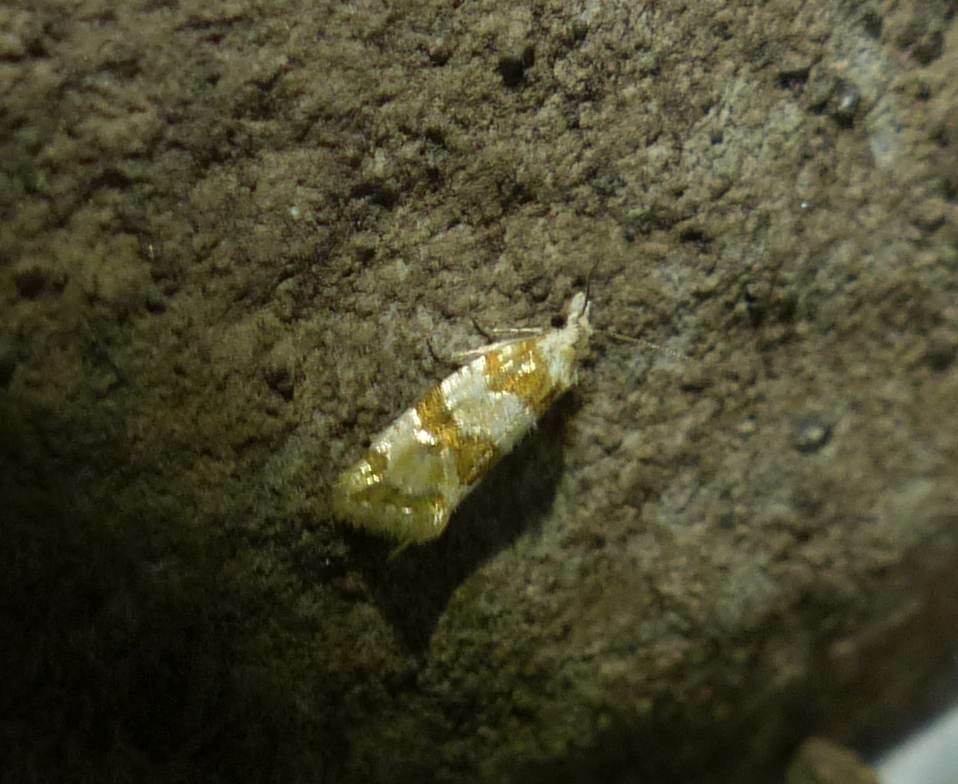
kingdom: Animalia
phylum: Arthropoda
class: Insecta
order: Lepidoptera
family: Tortricidae
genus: Aethes
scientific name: Aethes argentilimitana
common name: Silver-bordered aethes
